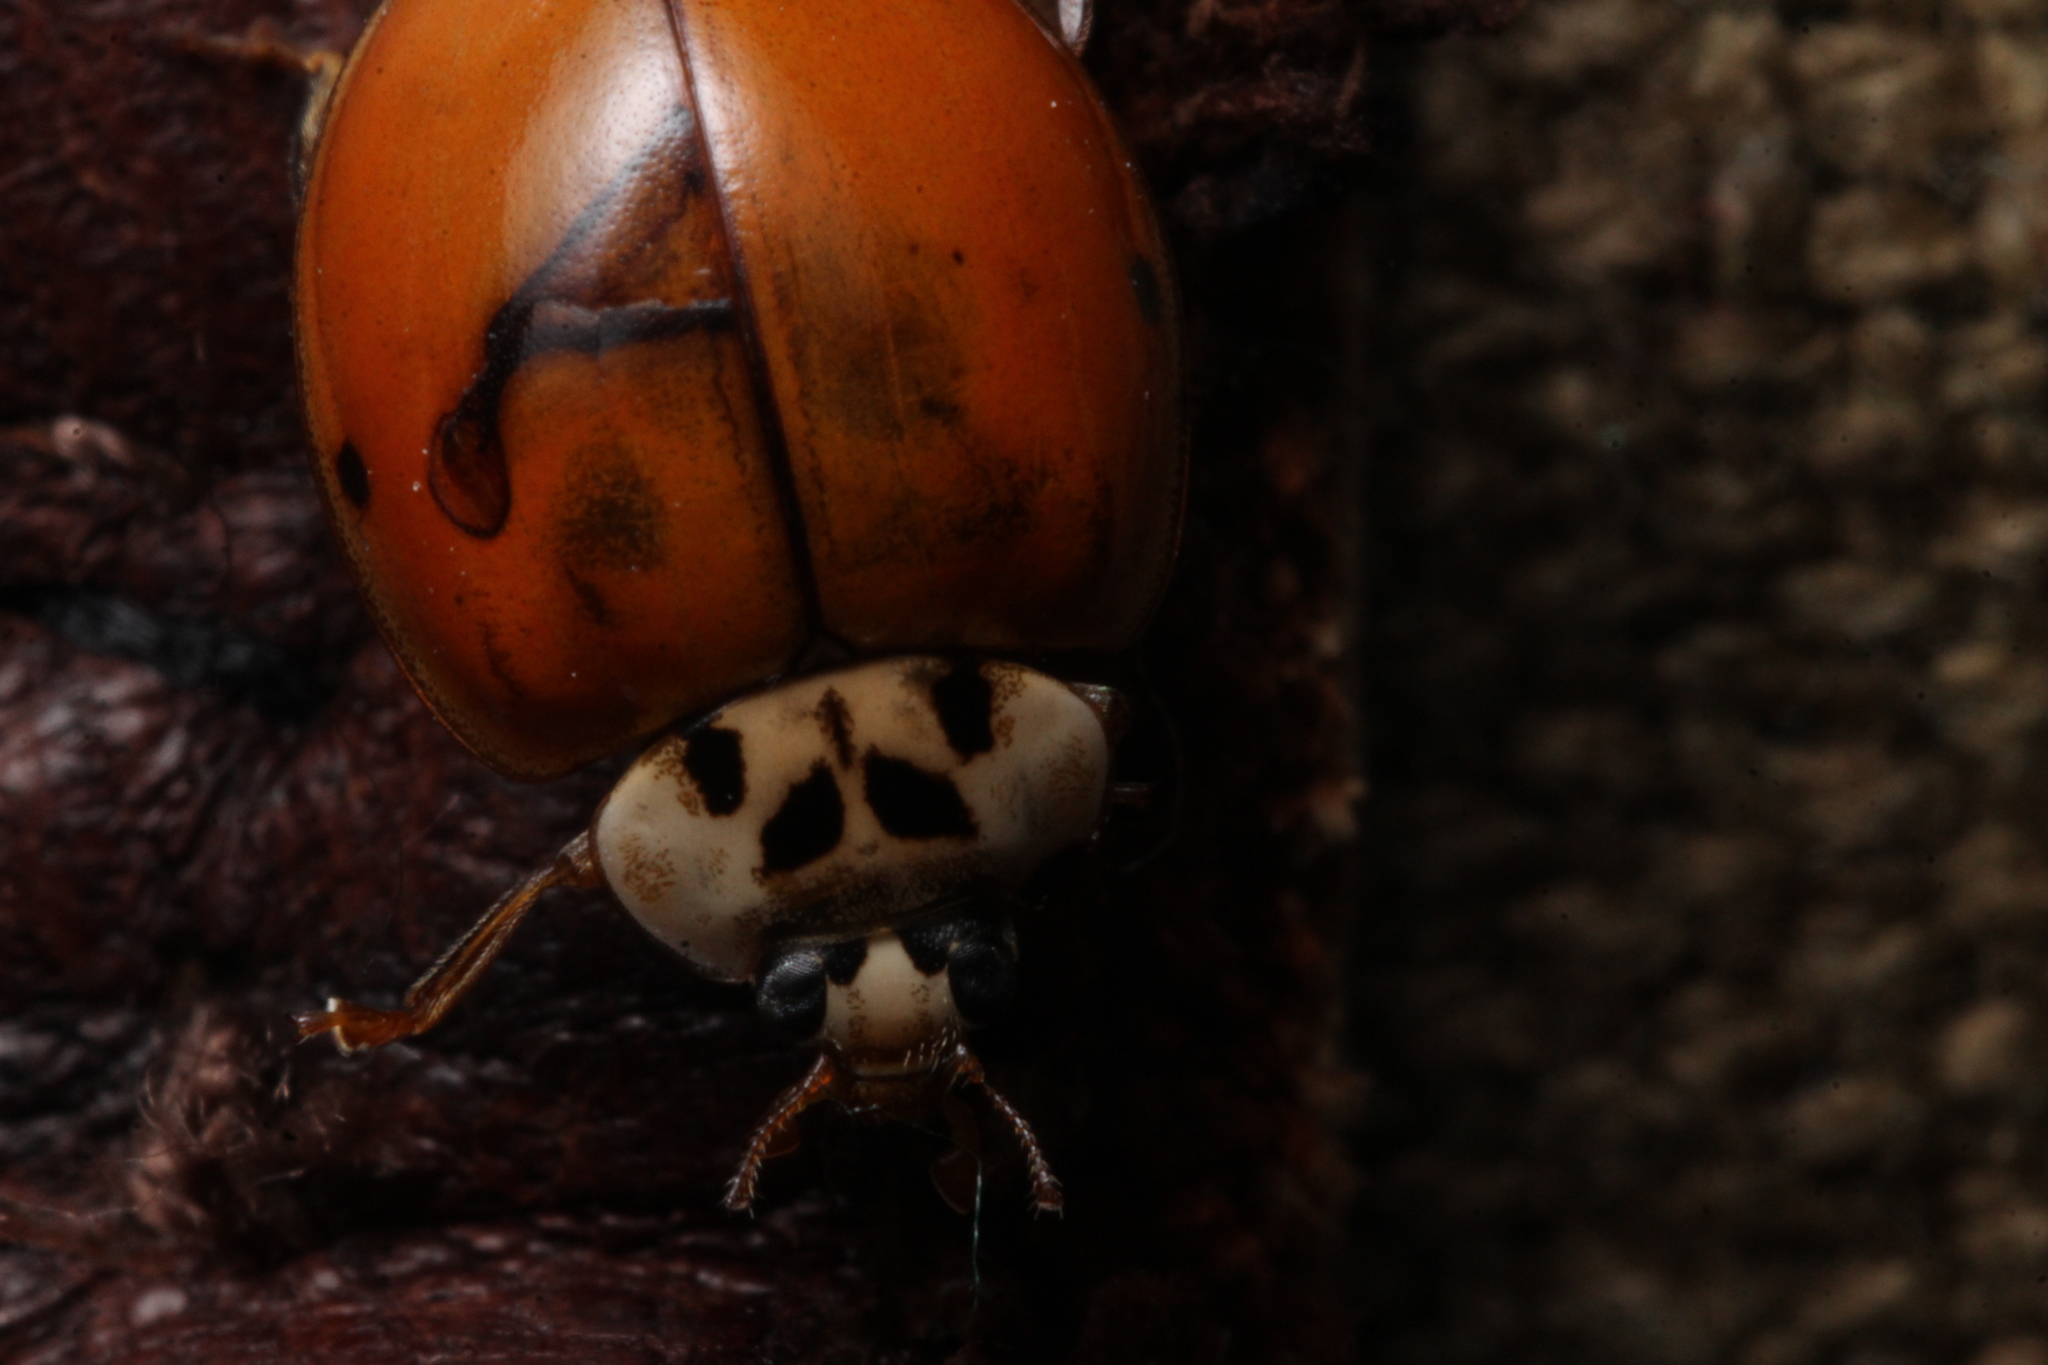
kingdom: Animalia
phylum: Arthropoda
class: Insecta
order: Coleoptera
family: Coccinellidae
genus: Harmonia
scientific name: Harmonia axyridis
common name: Harlequin ladybird
